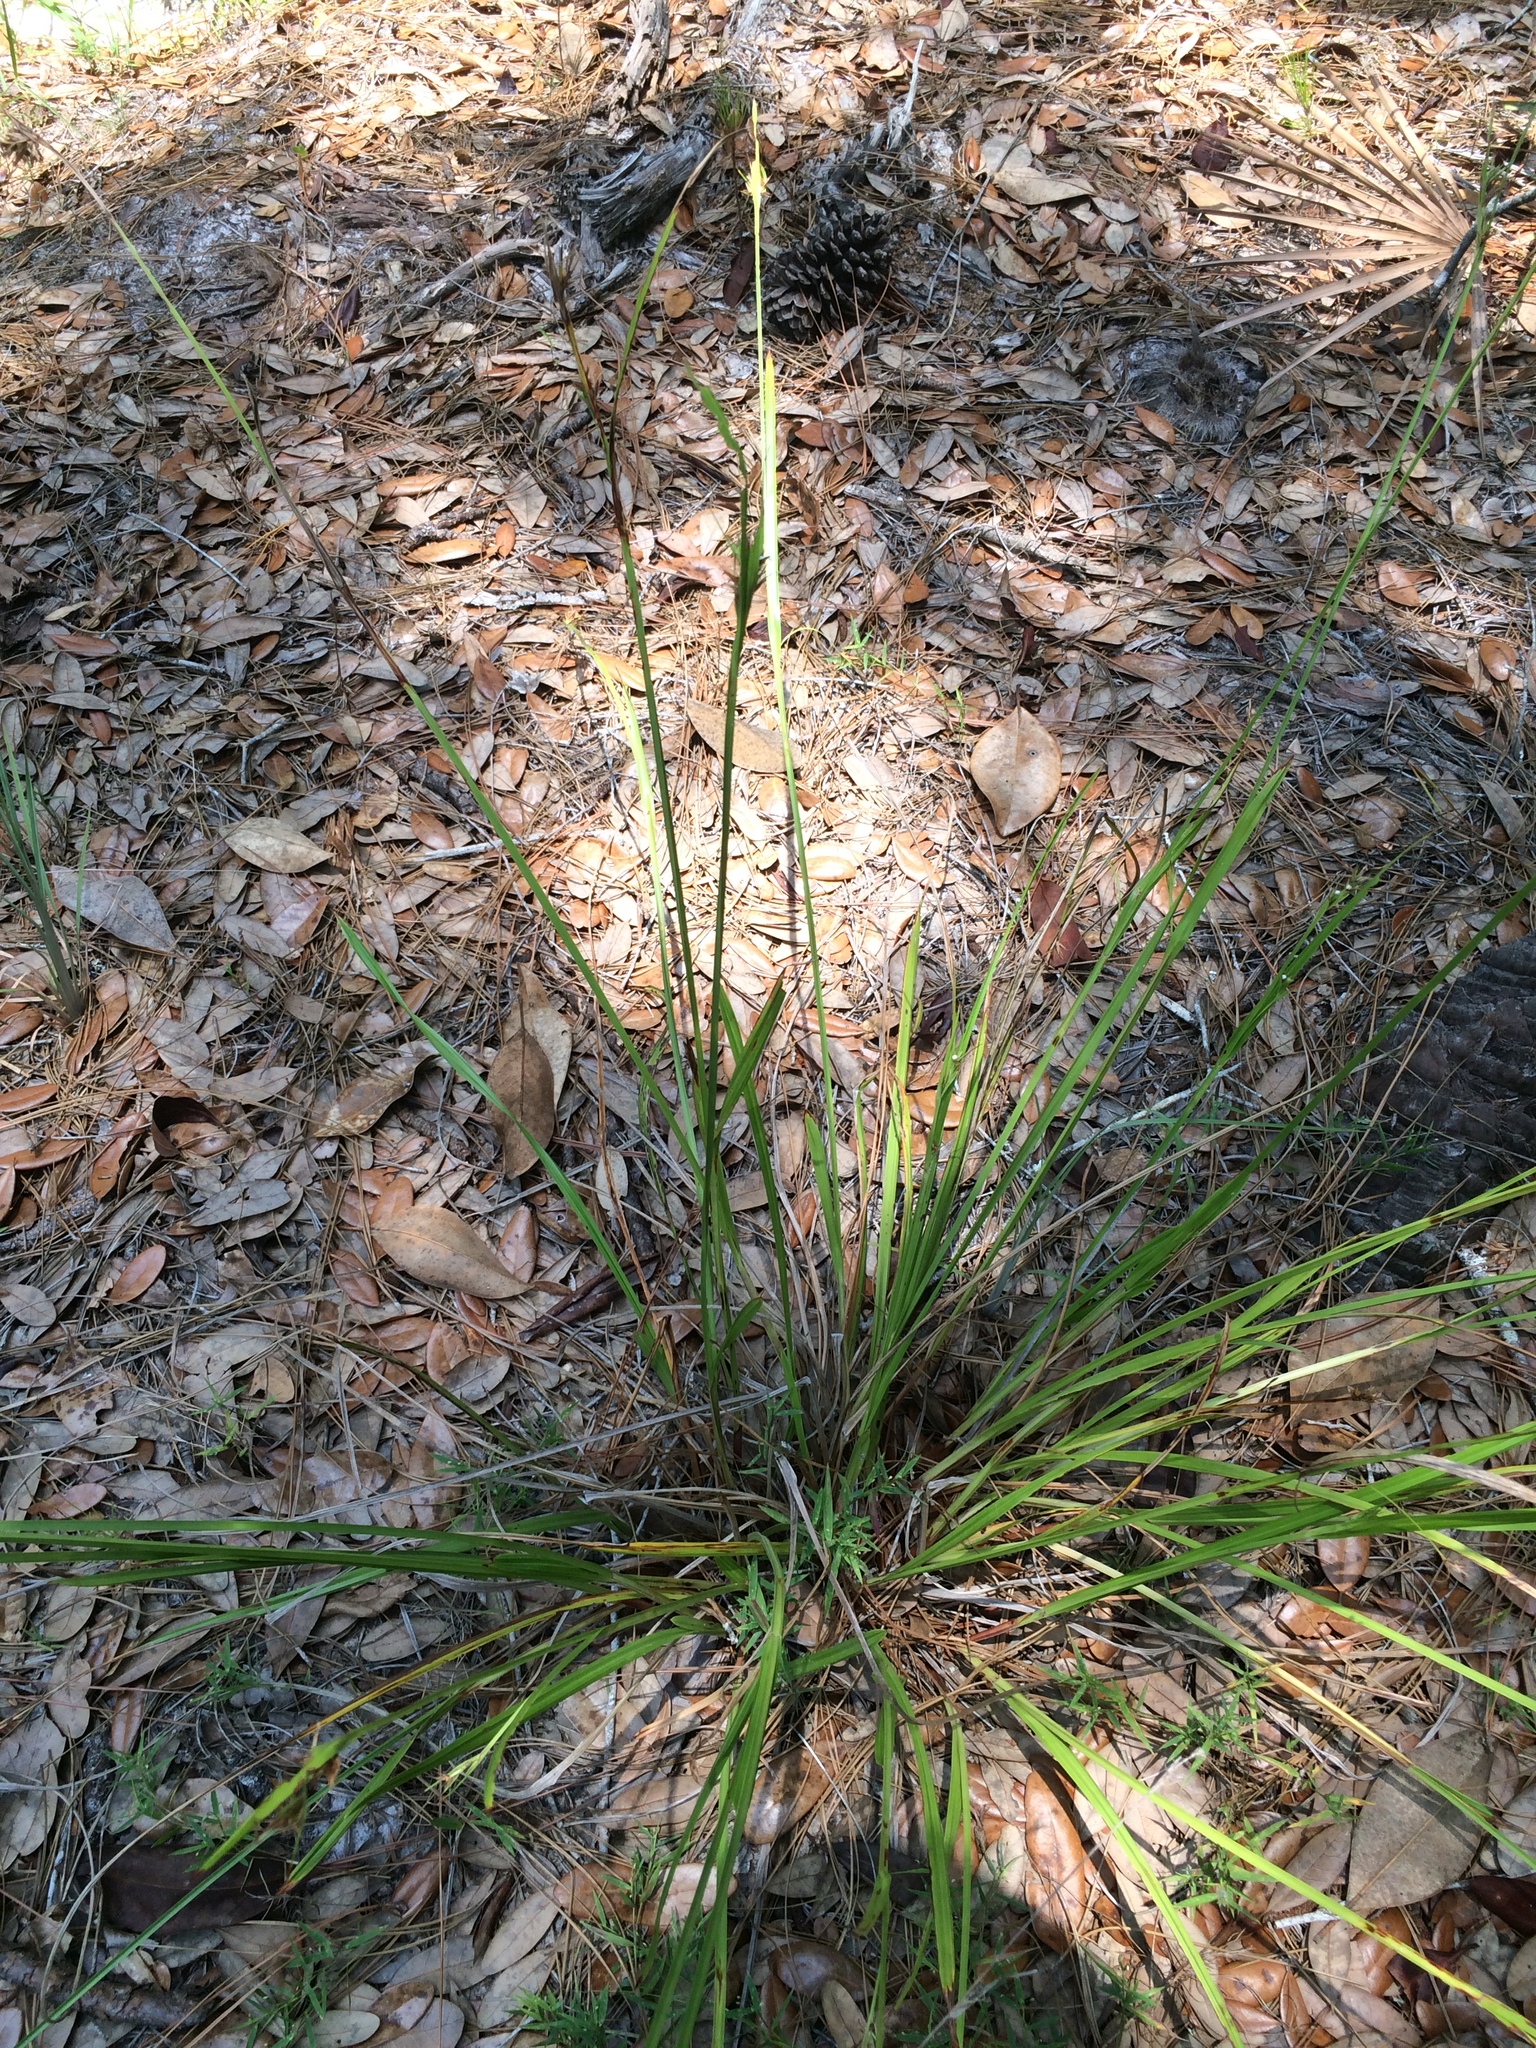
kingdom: Plantae
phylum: Tracheophyta
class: Liliopsida
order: Poales
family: Cyperaceae
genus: Scleria
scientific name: Scleria triglomerata
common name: Whip nutrush
